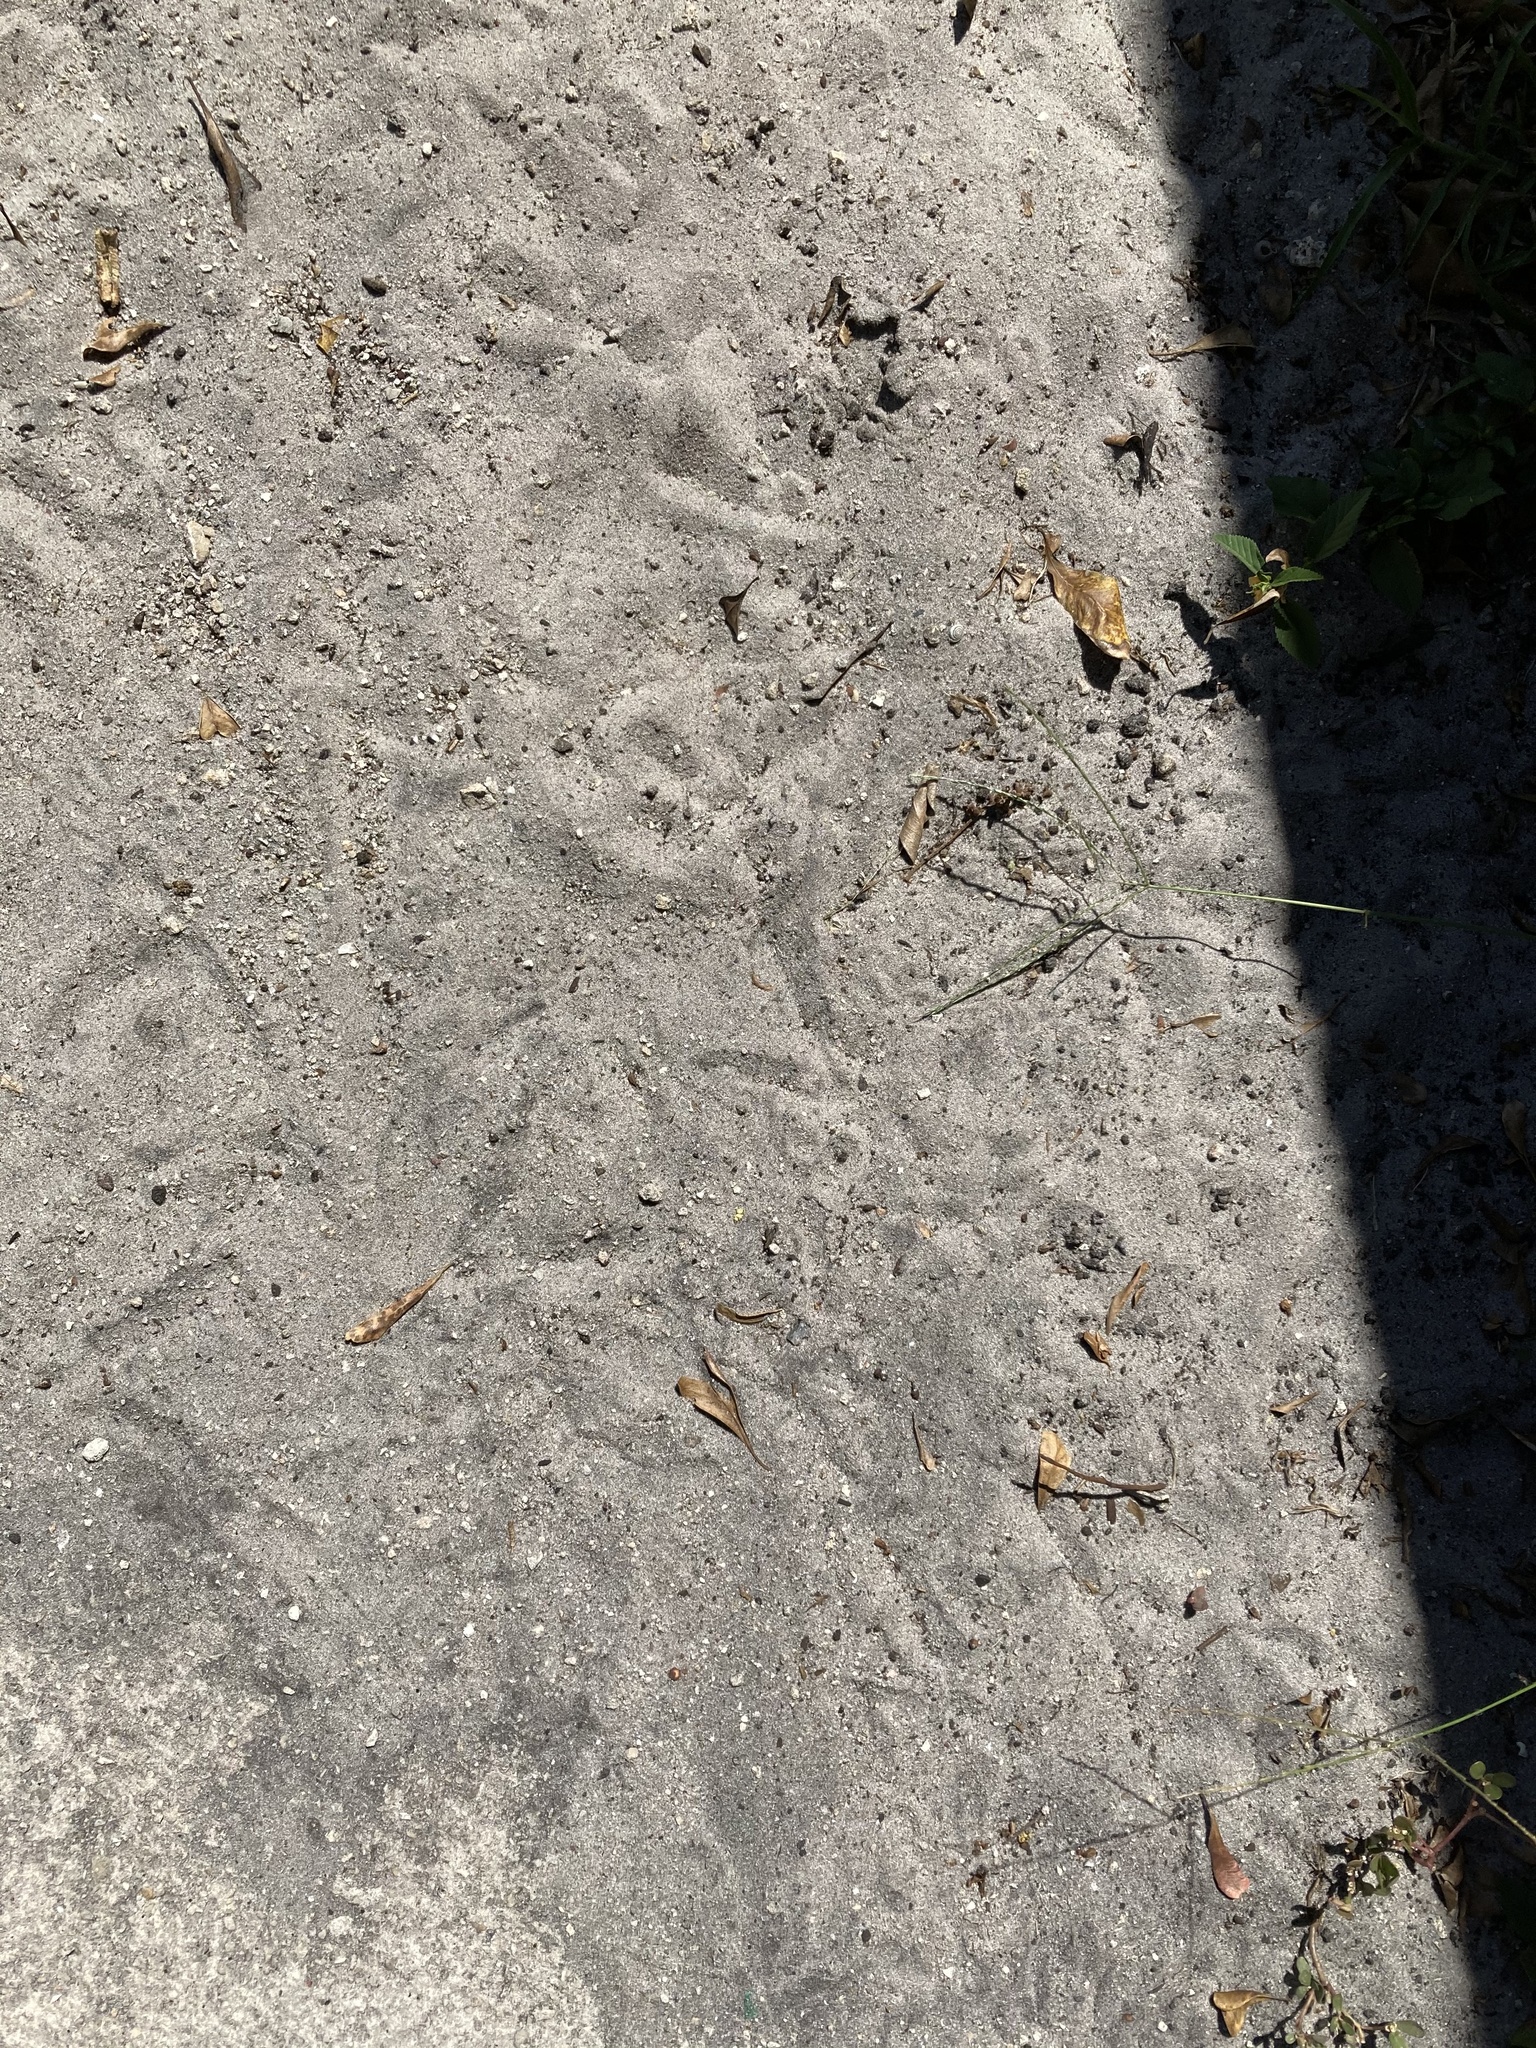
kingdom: Animalia
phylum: Chordata
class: Aves
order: Galliformes
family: Numididae
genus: Numida
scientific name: Numida meleagris
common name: Helmeted guineafowl
